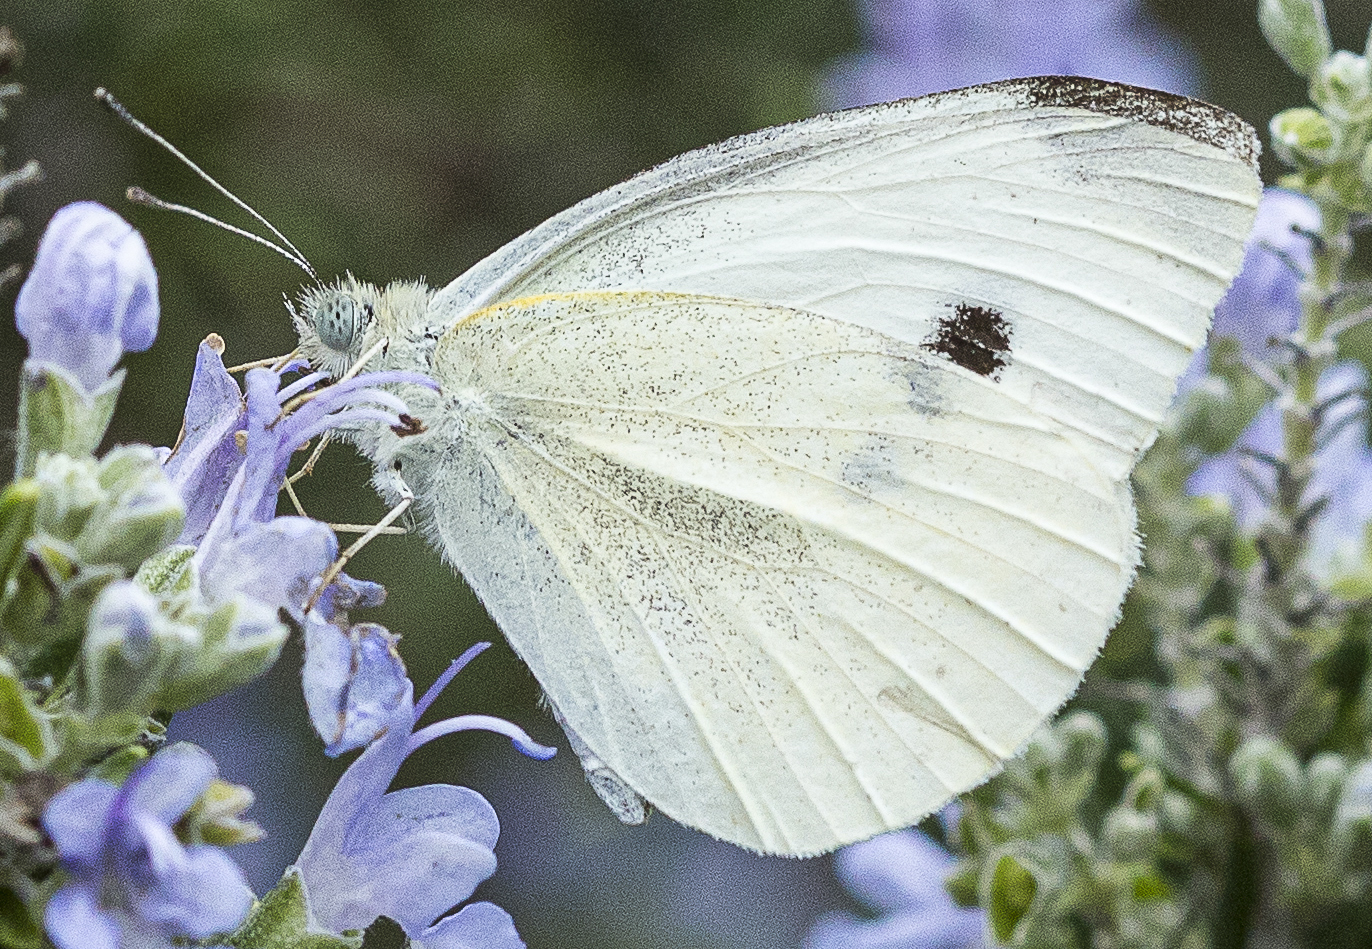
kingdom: Animalia
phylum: Arthropoda
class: Insecta
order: Lepidoptera
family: Pieridae
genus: Pieris
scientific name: Pieris rapae
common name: Small white
